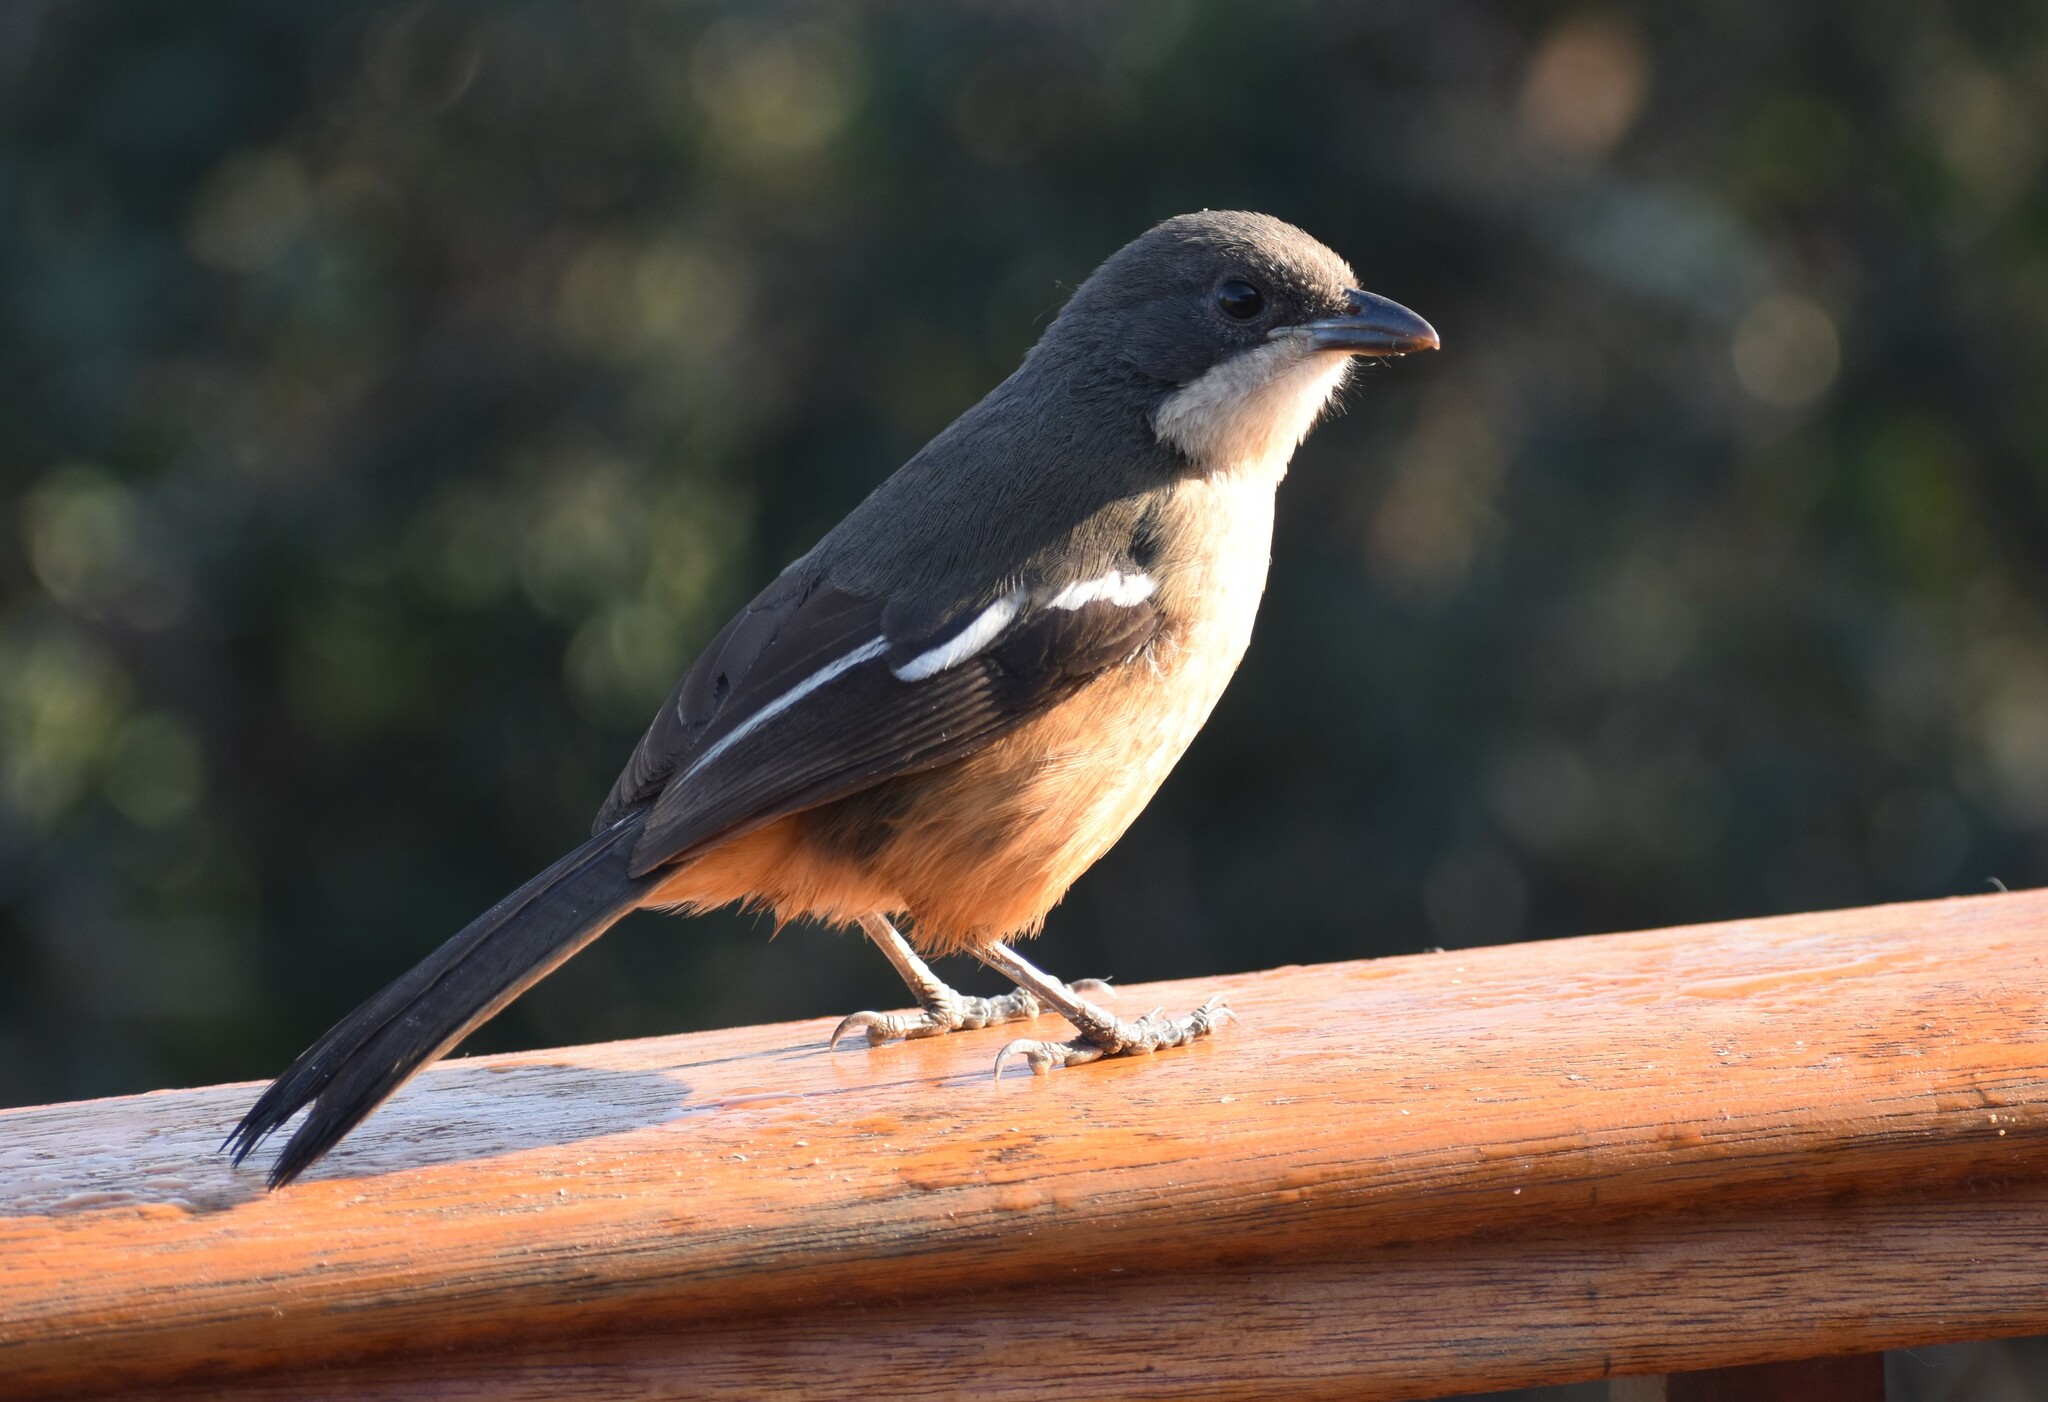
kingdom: Animalia
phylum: Chordata
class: Aves
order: Passeriformes
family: Malaconotidae
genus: Laniarius
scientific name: Laniarius ferrugineus
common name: Southern boubou
